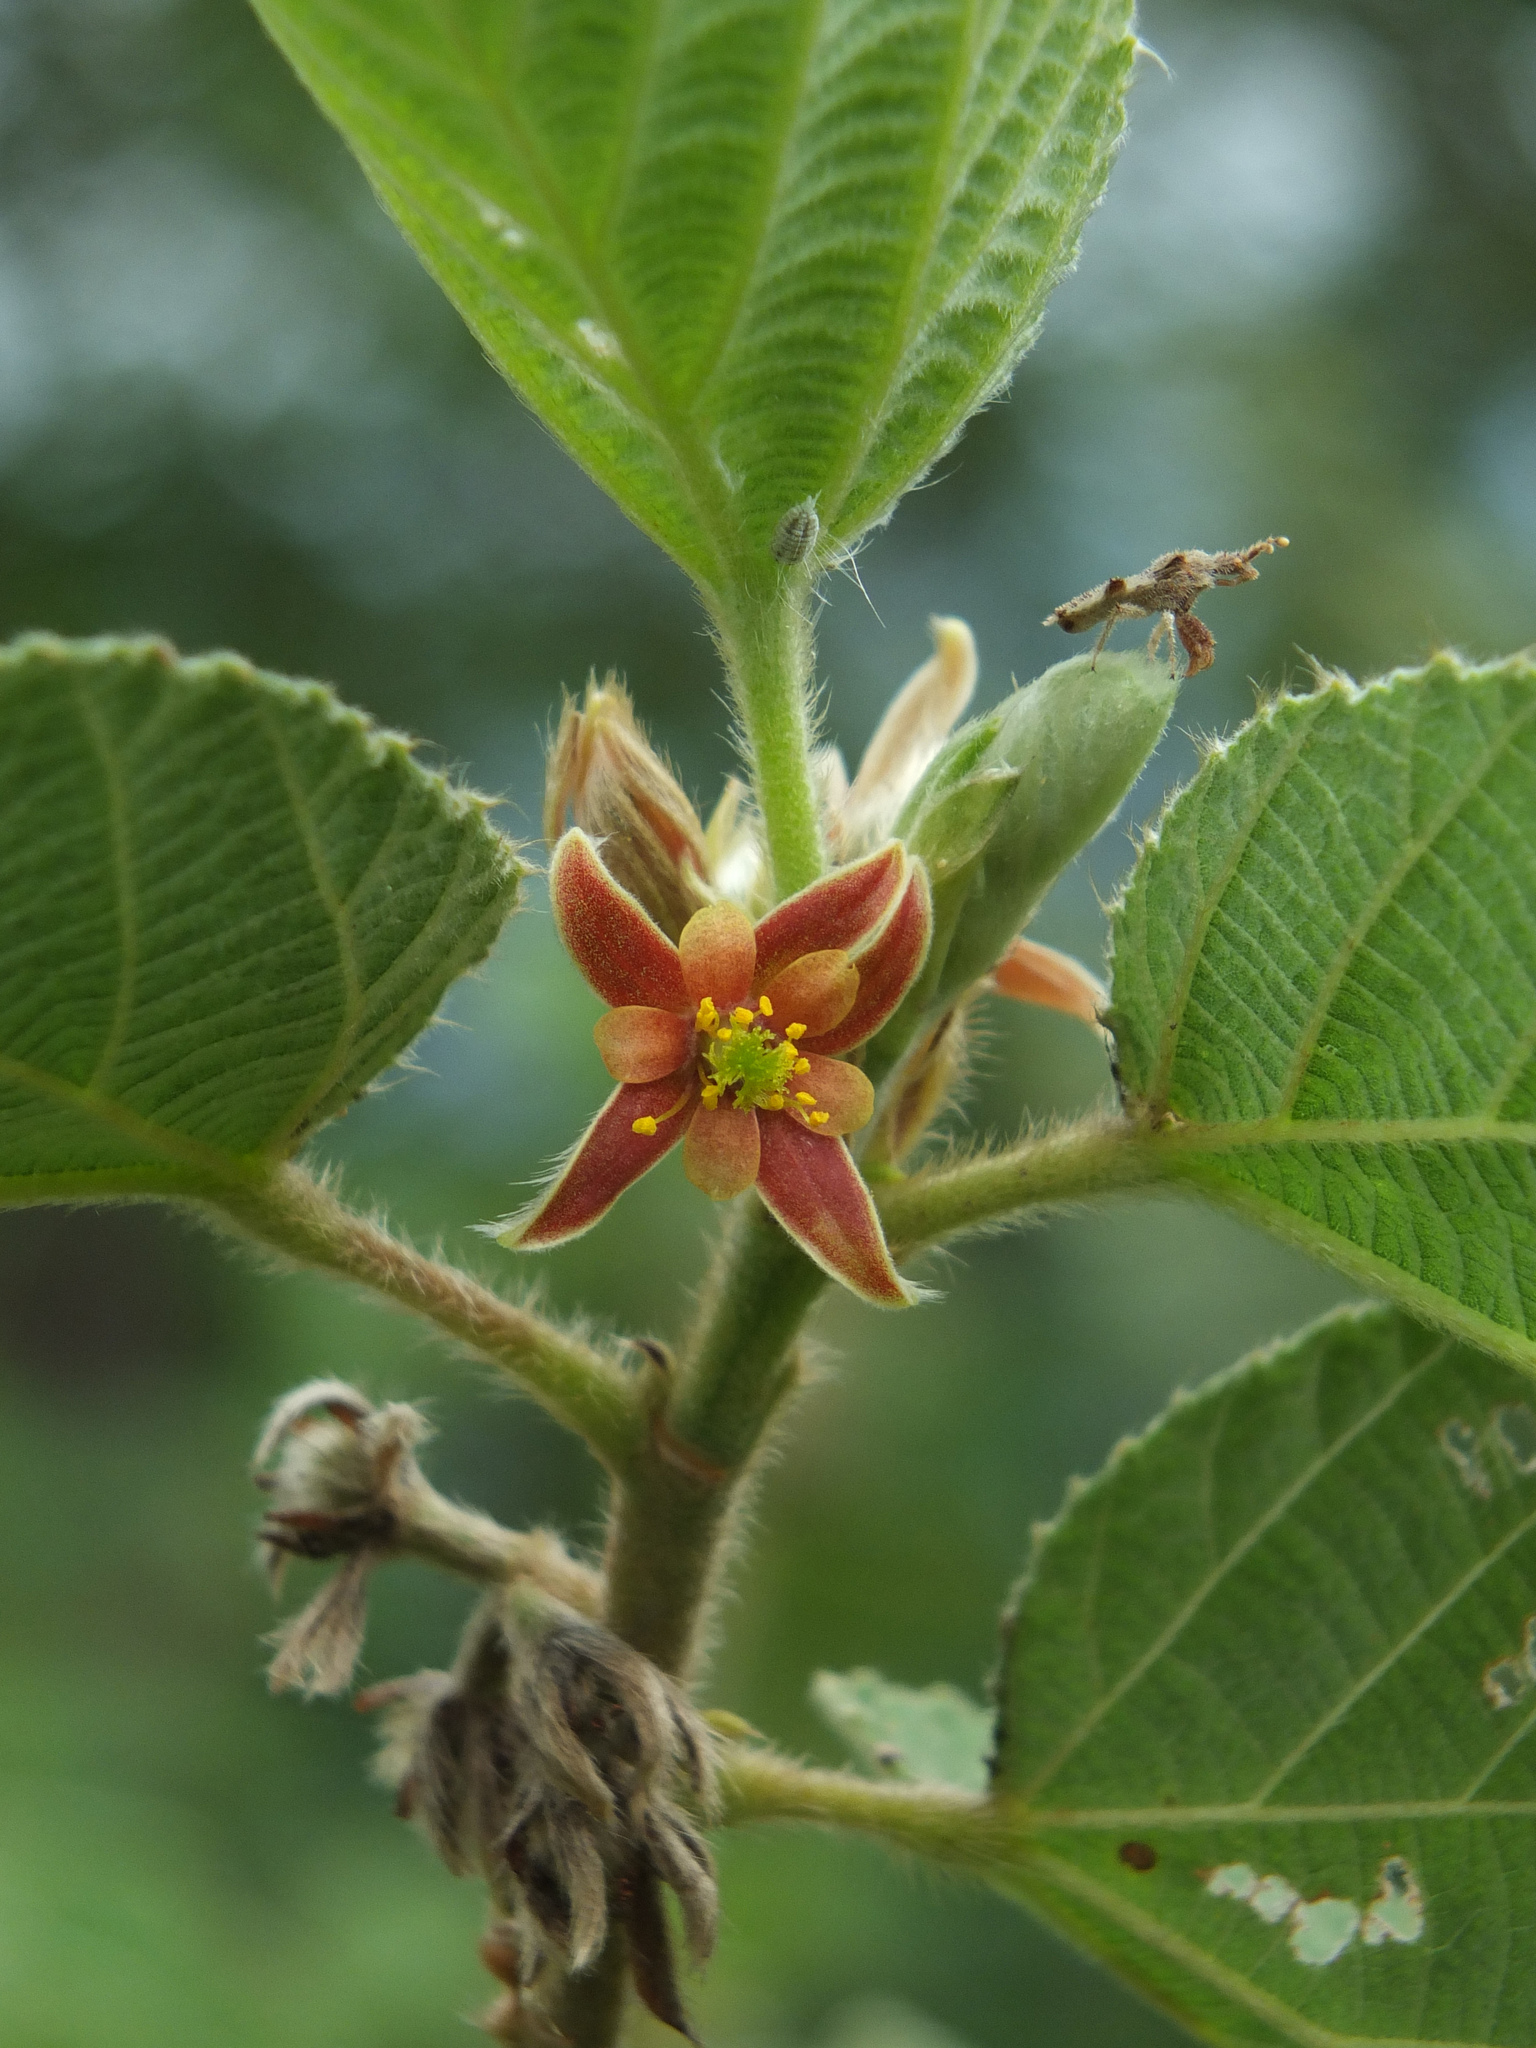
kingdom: Plantae
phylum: Tracheophyta
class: Magnoliopsida
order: Malvales
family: Malvaceae
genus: Grewia
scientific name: Grewia villosa
